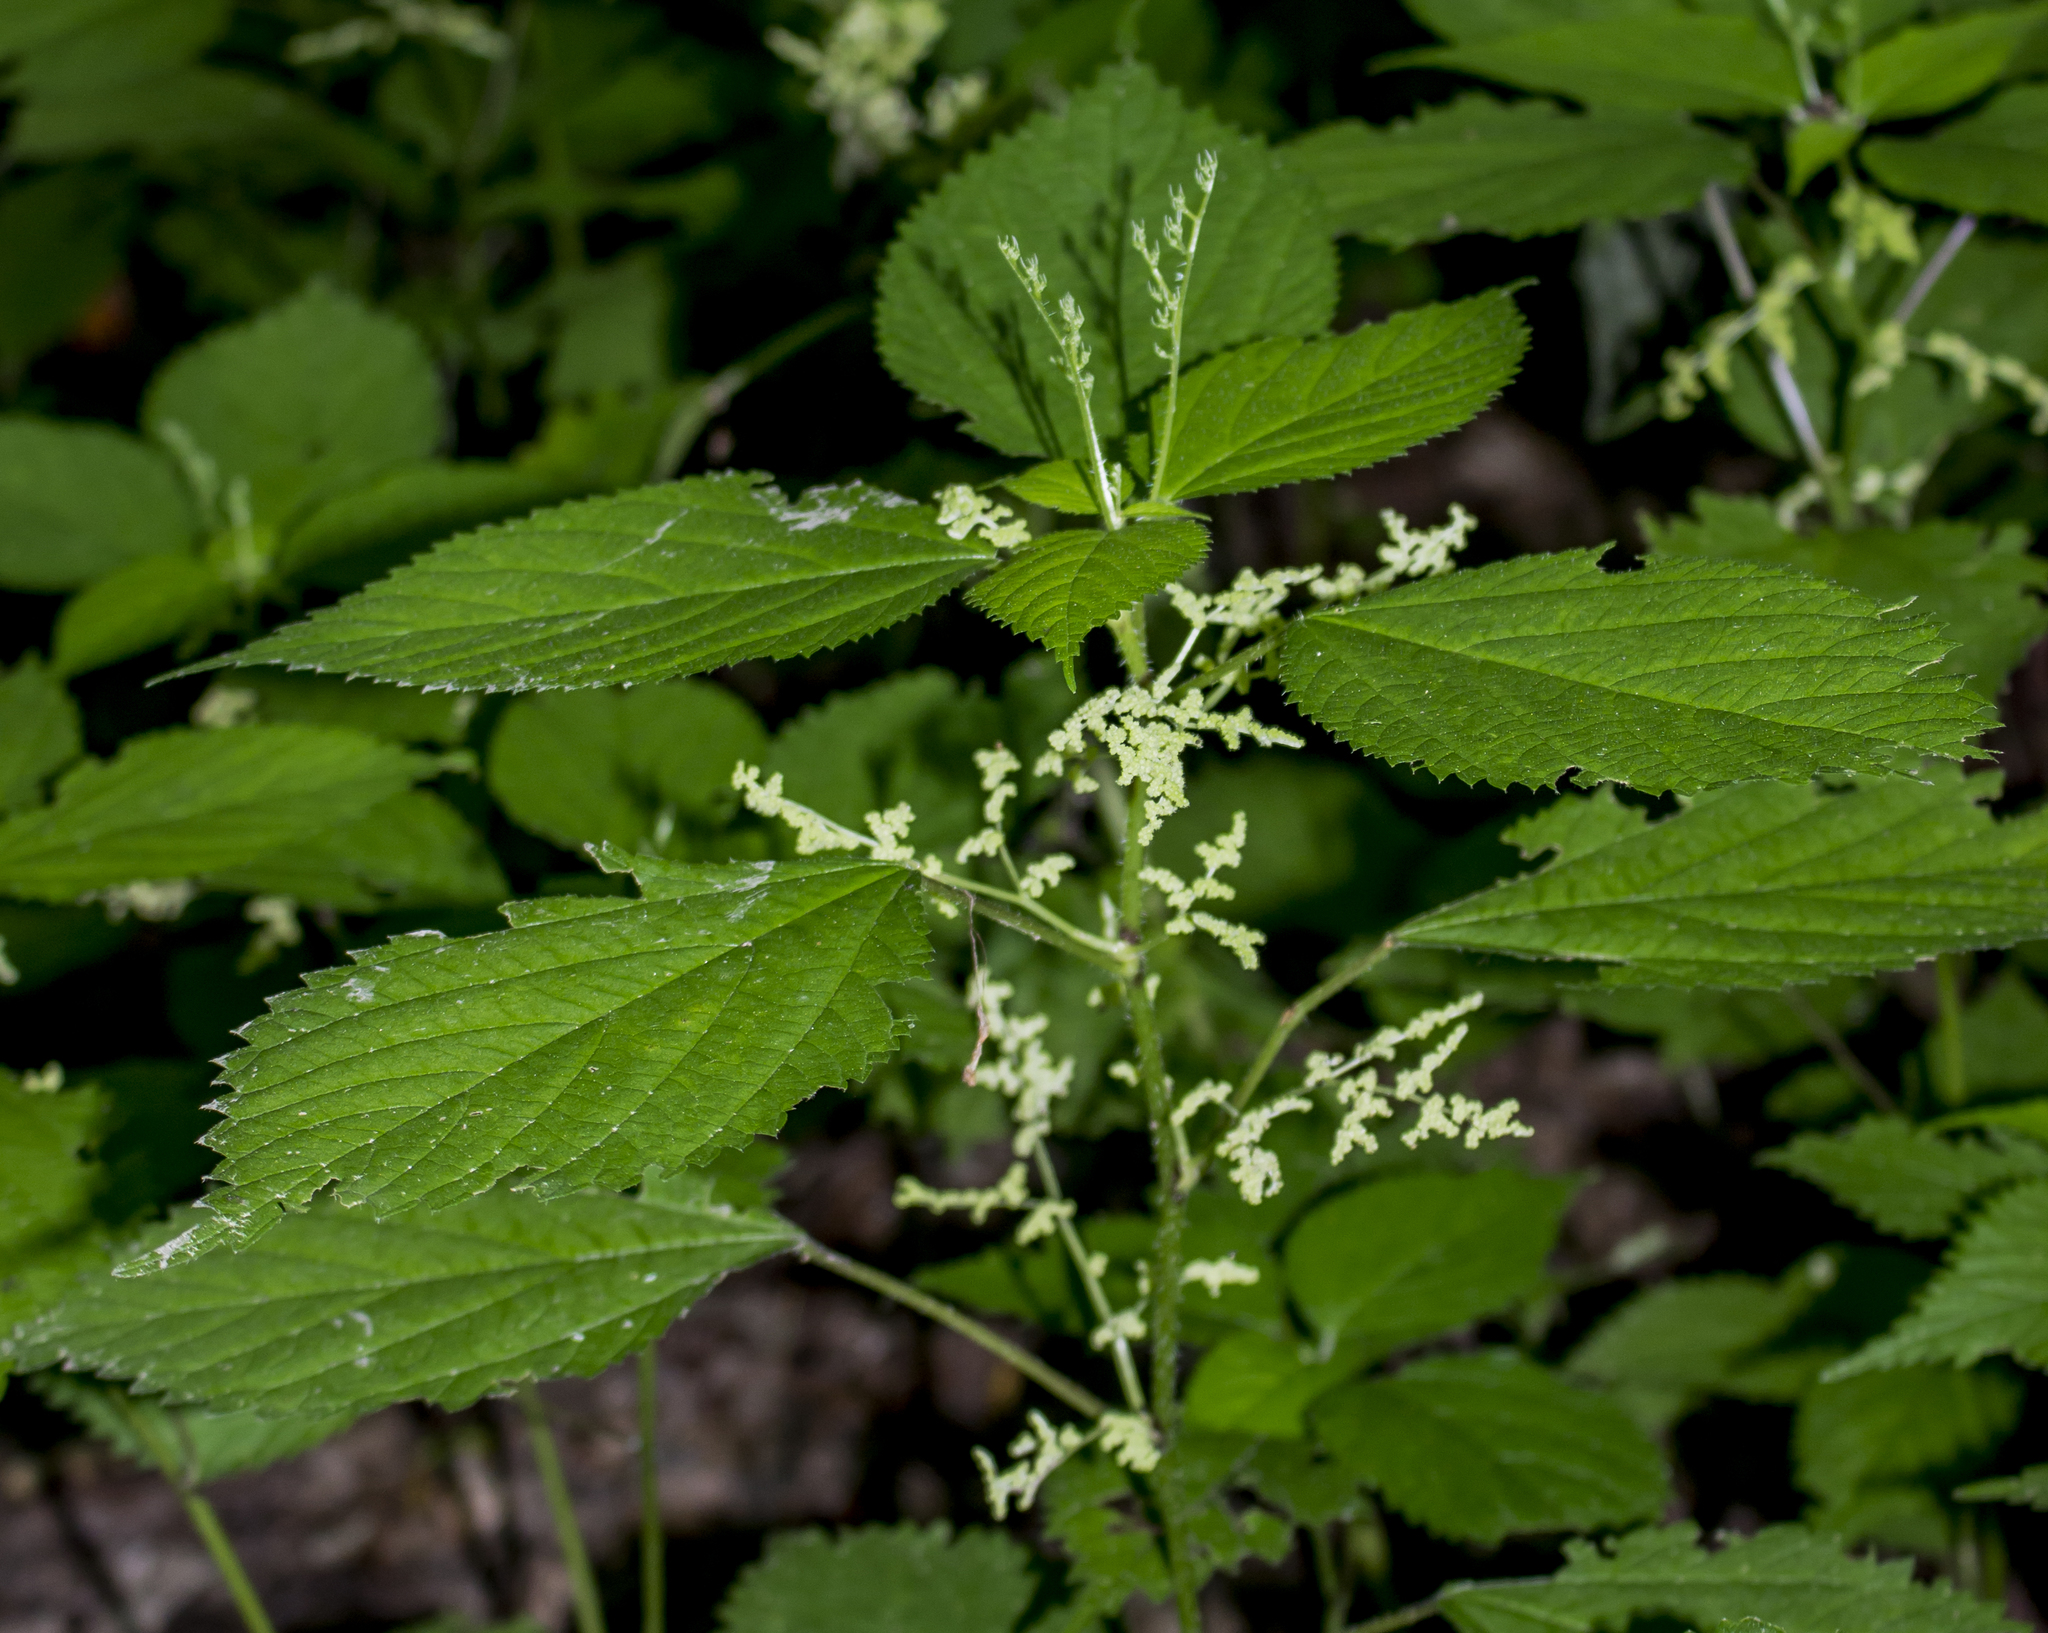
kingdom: Plantae
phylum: Tracheophyta
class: Magnoliopsida
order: Rosales
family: Urticaceae
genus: Laportea
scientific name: Laportea canadensis
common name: Canada nettle
